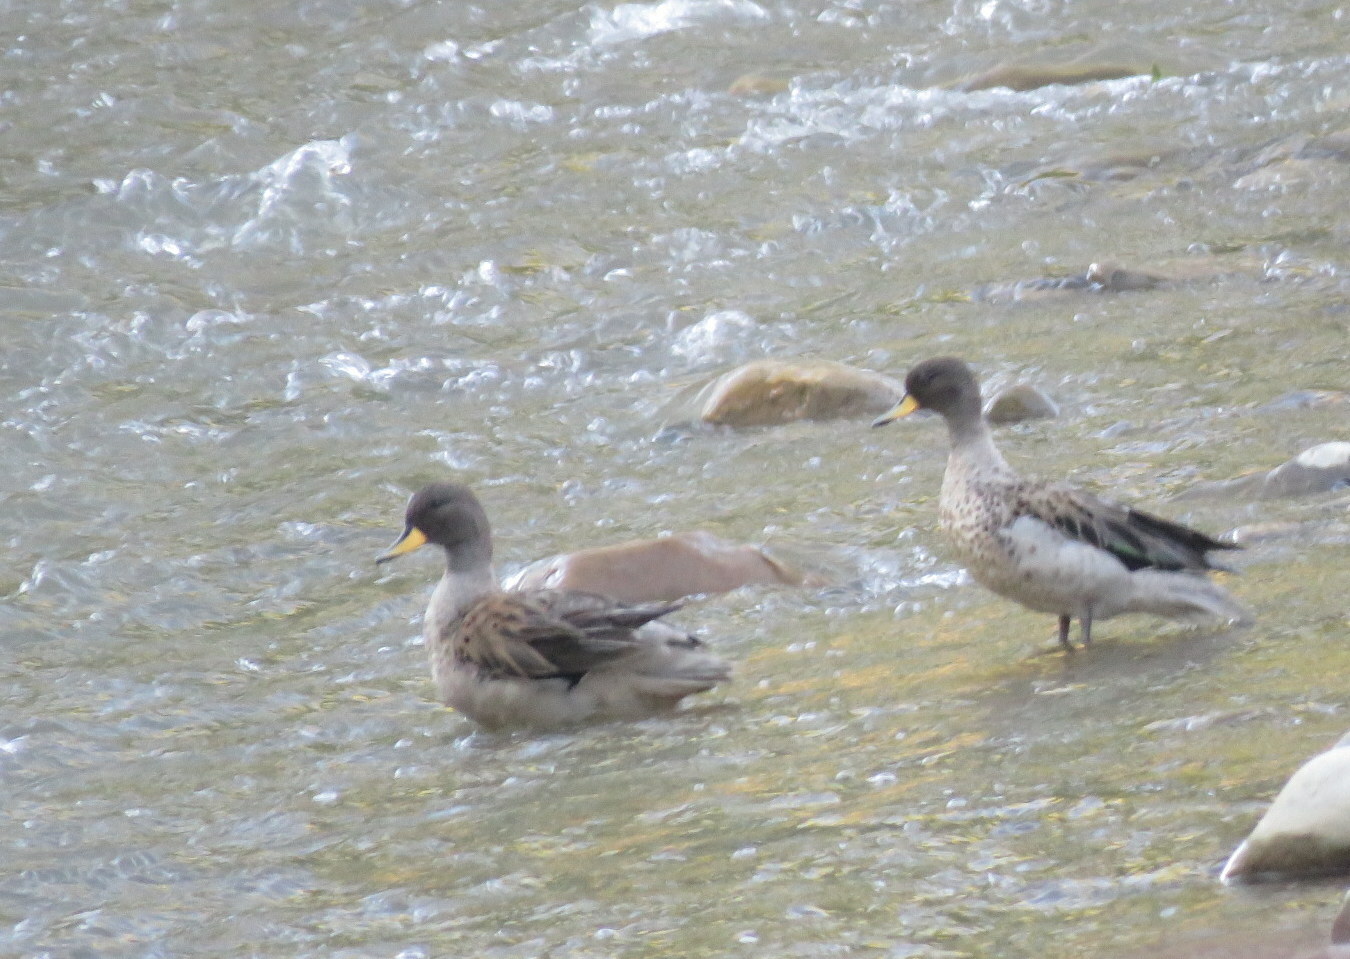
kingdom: Animalia
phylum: Chordata
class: Aves
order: Anseriformes
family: Anatidae
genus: Anas
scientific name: Anas flavirostris
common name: Yellow-billed teal
